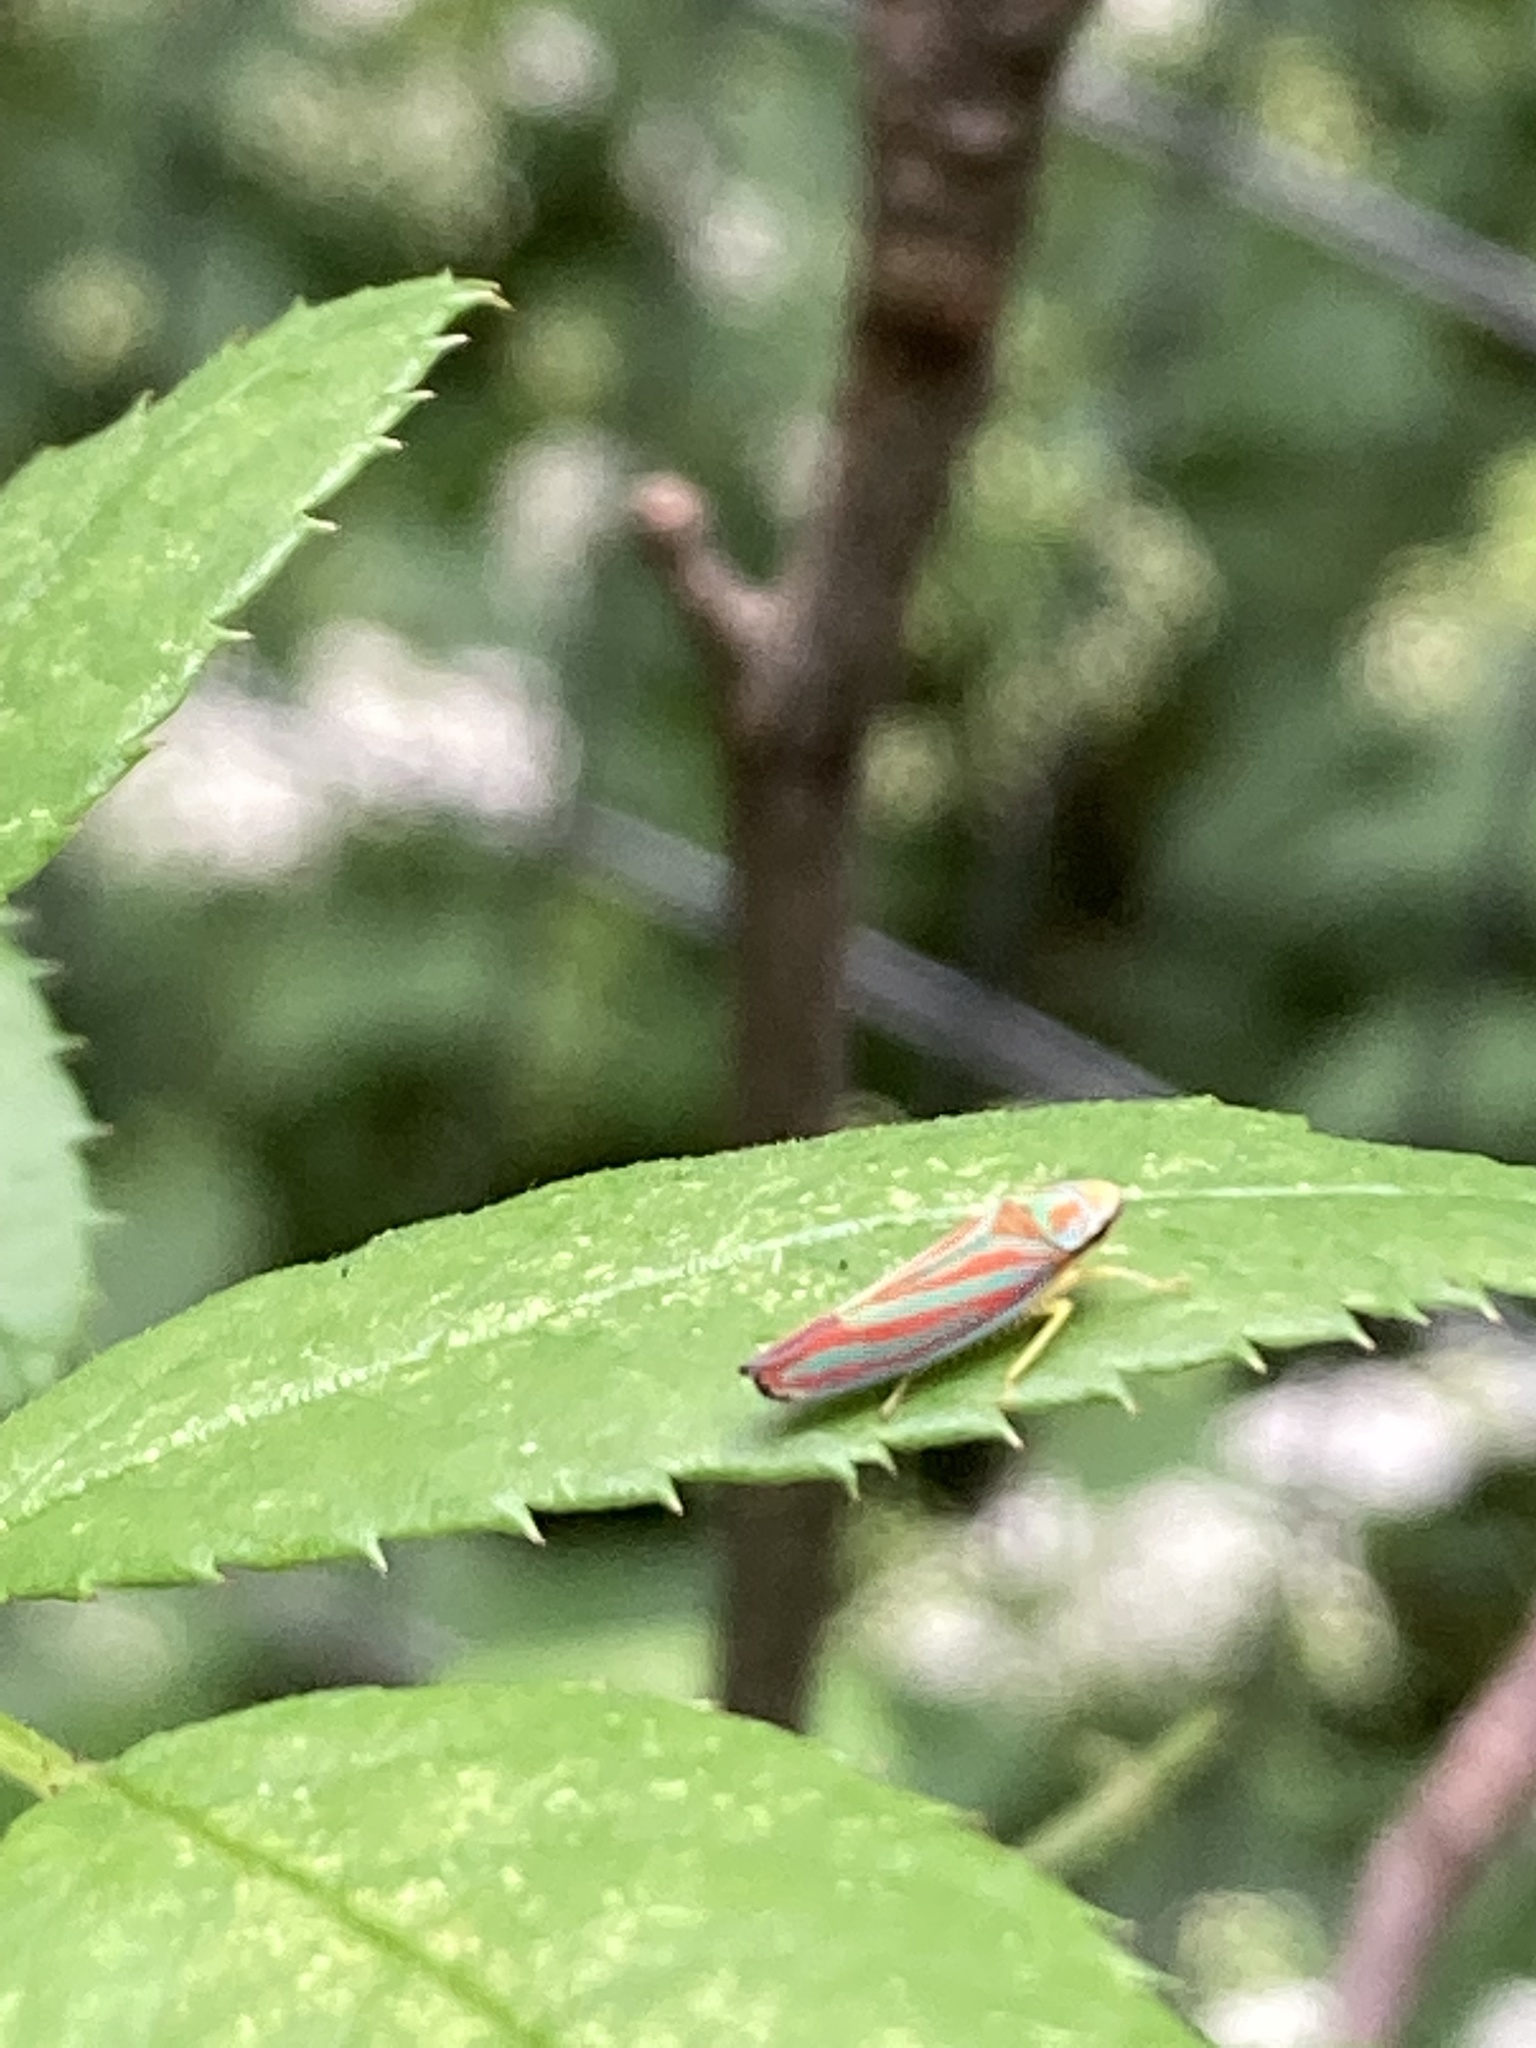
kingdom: Animalia
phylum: Arthropoda
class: Insecta
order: Hemiptera
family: Cicadellidae
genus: Graphocephala
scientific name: Graphocephala coccinea
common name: Candy-striped leafhopper
